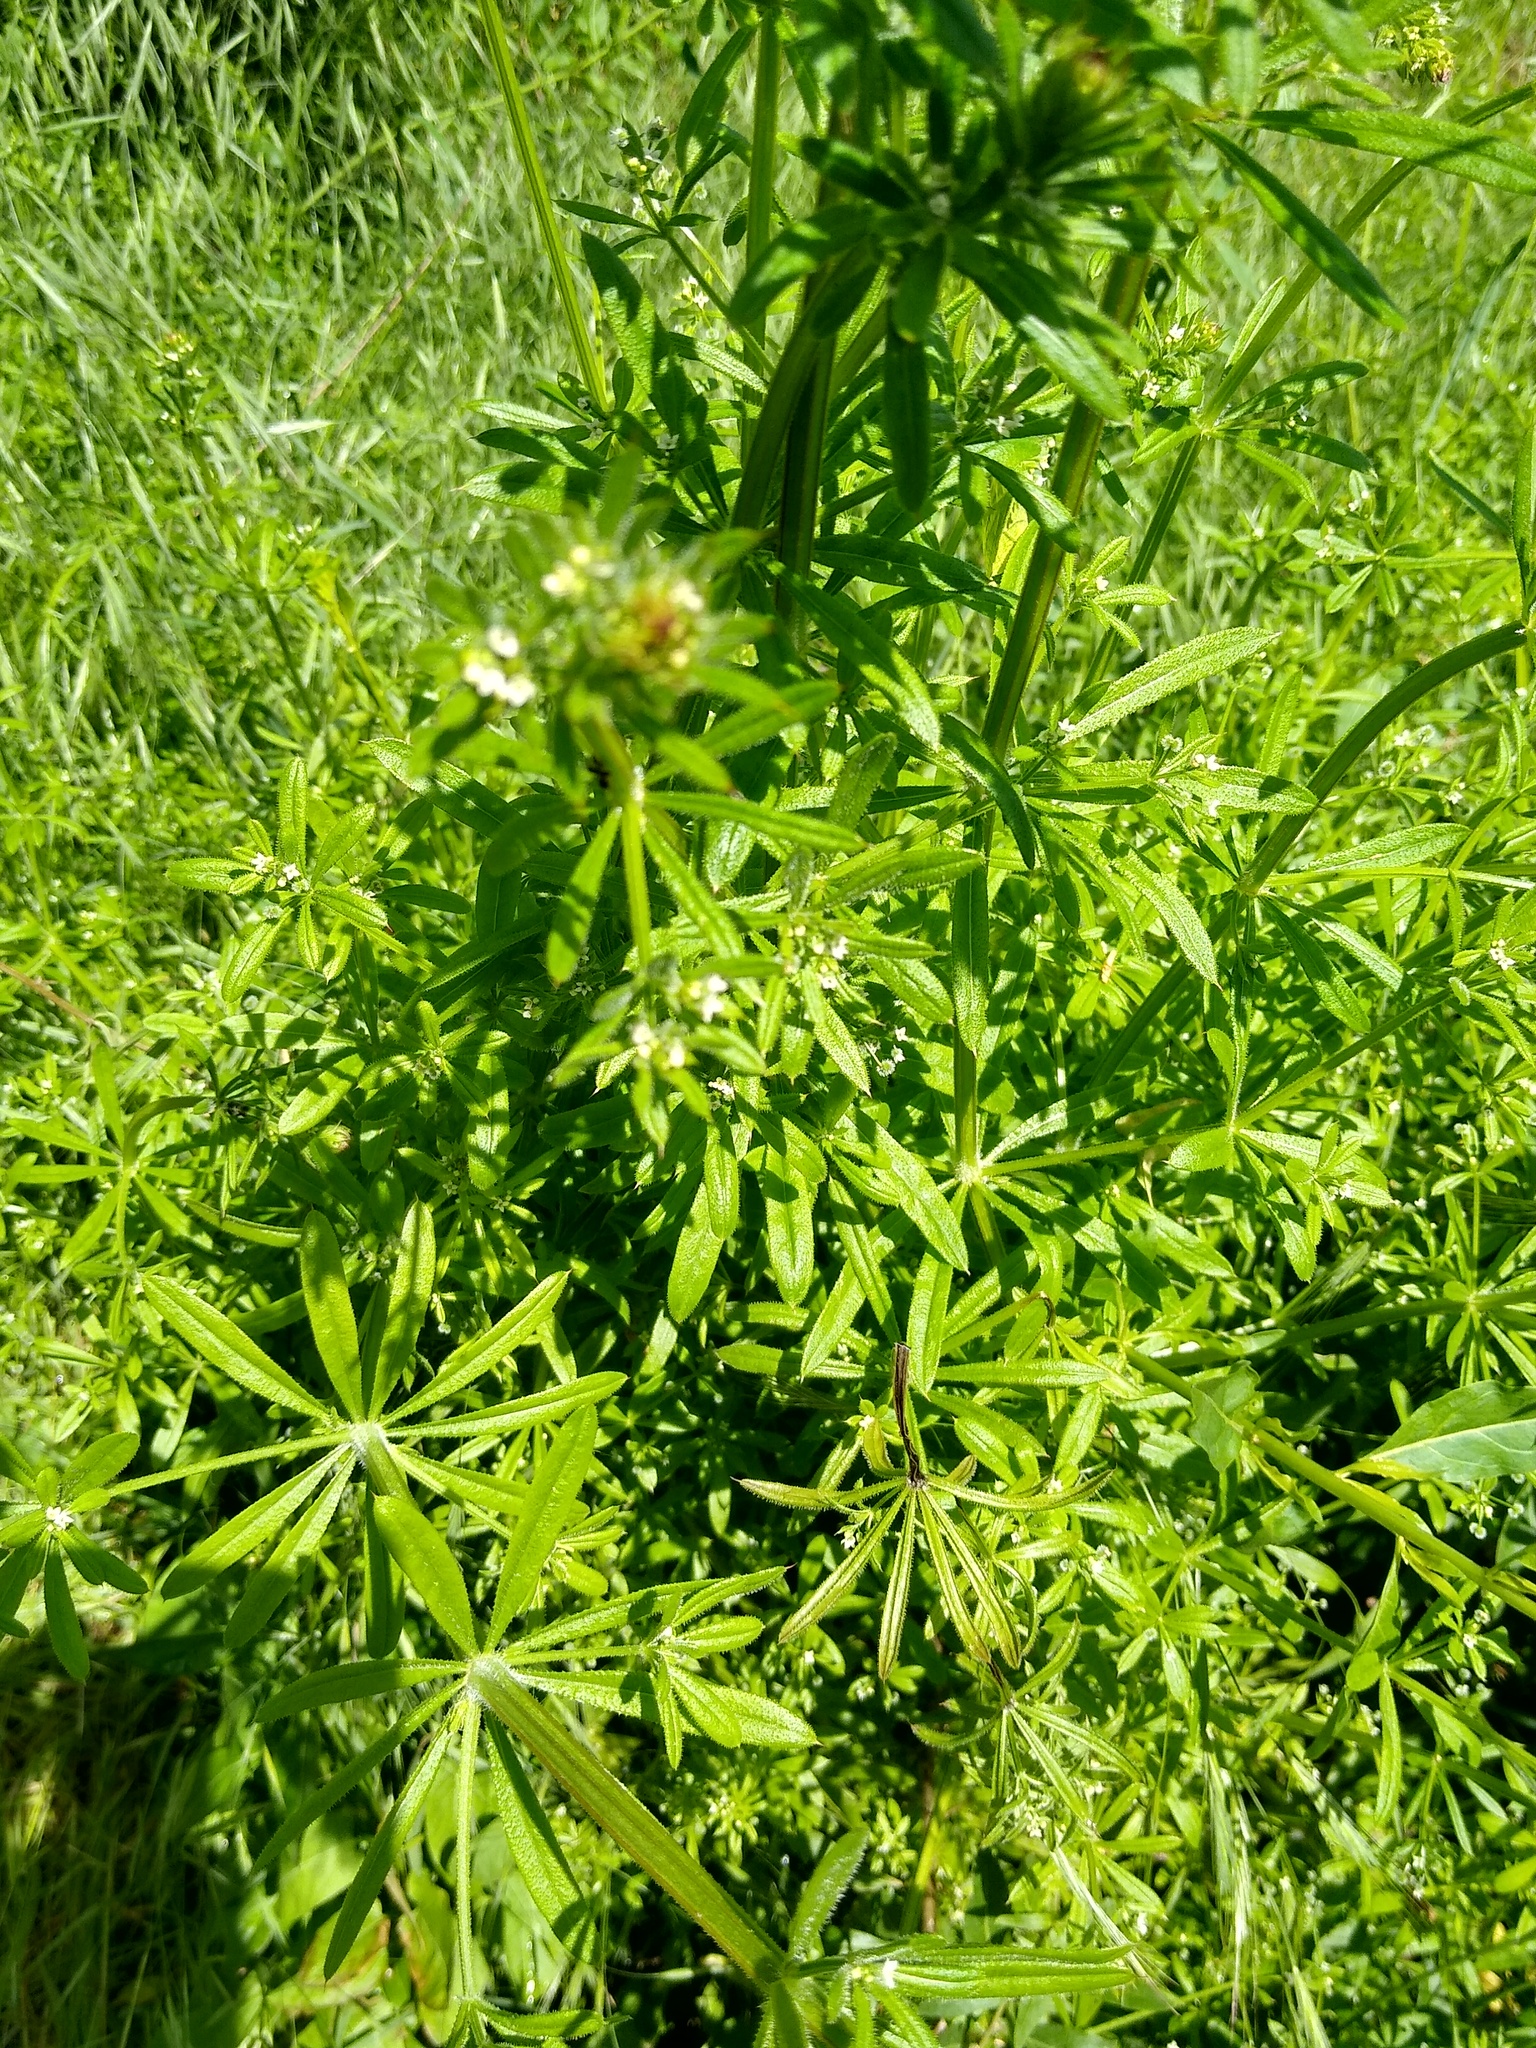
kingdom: Plantae
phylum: Tracheophyta
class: Magnoliopsida
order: Gentianales
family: Rubiaceae
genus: Galium
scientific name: Galium aparine
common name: Cleavers
